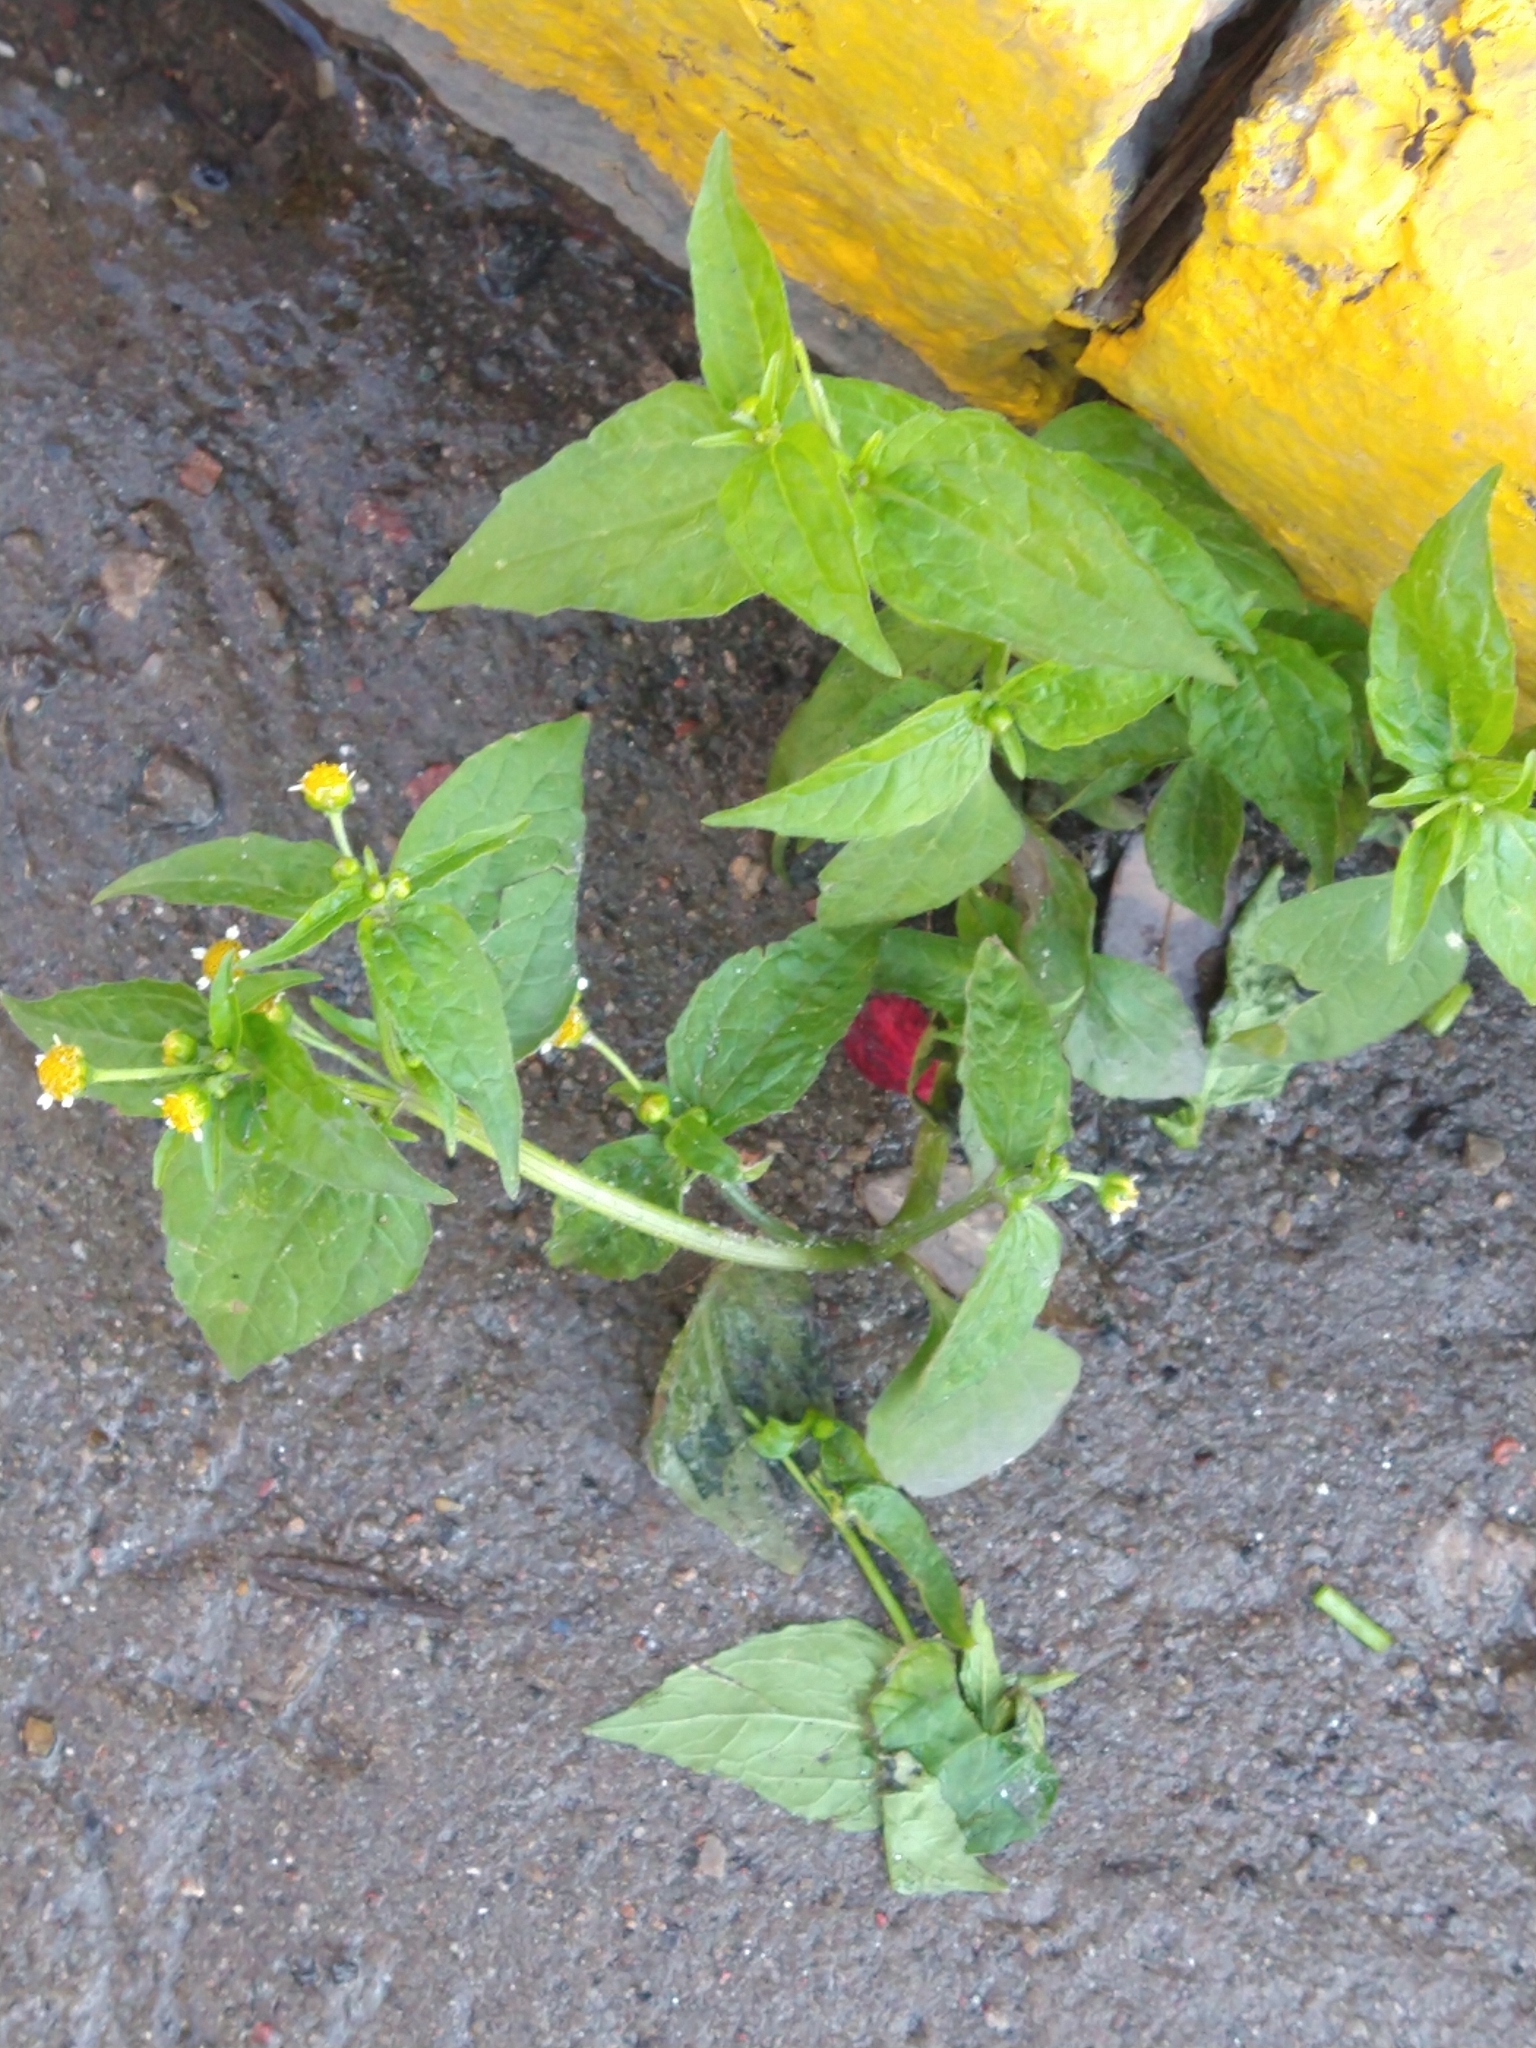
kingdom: Plantae
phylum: Tracheophyta
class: Magnoliopsida
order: Asterales
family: Asteraceae
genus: Galinsoga
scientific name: Galinsoga parviflora
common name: Gallant soldier
